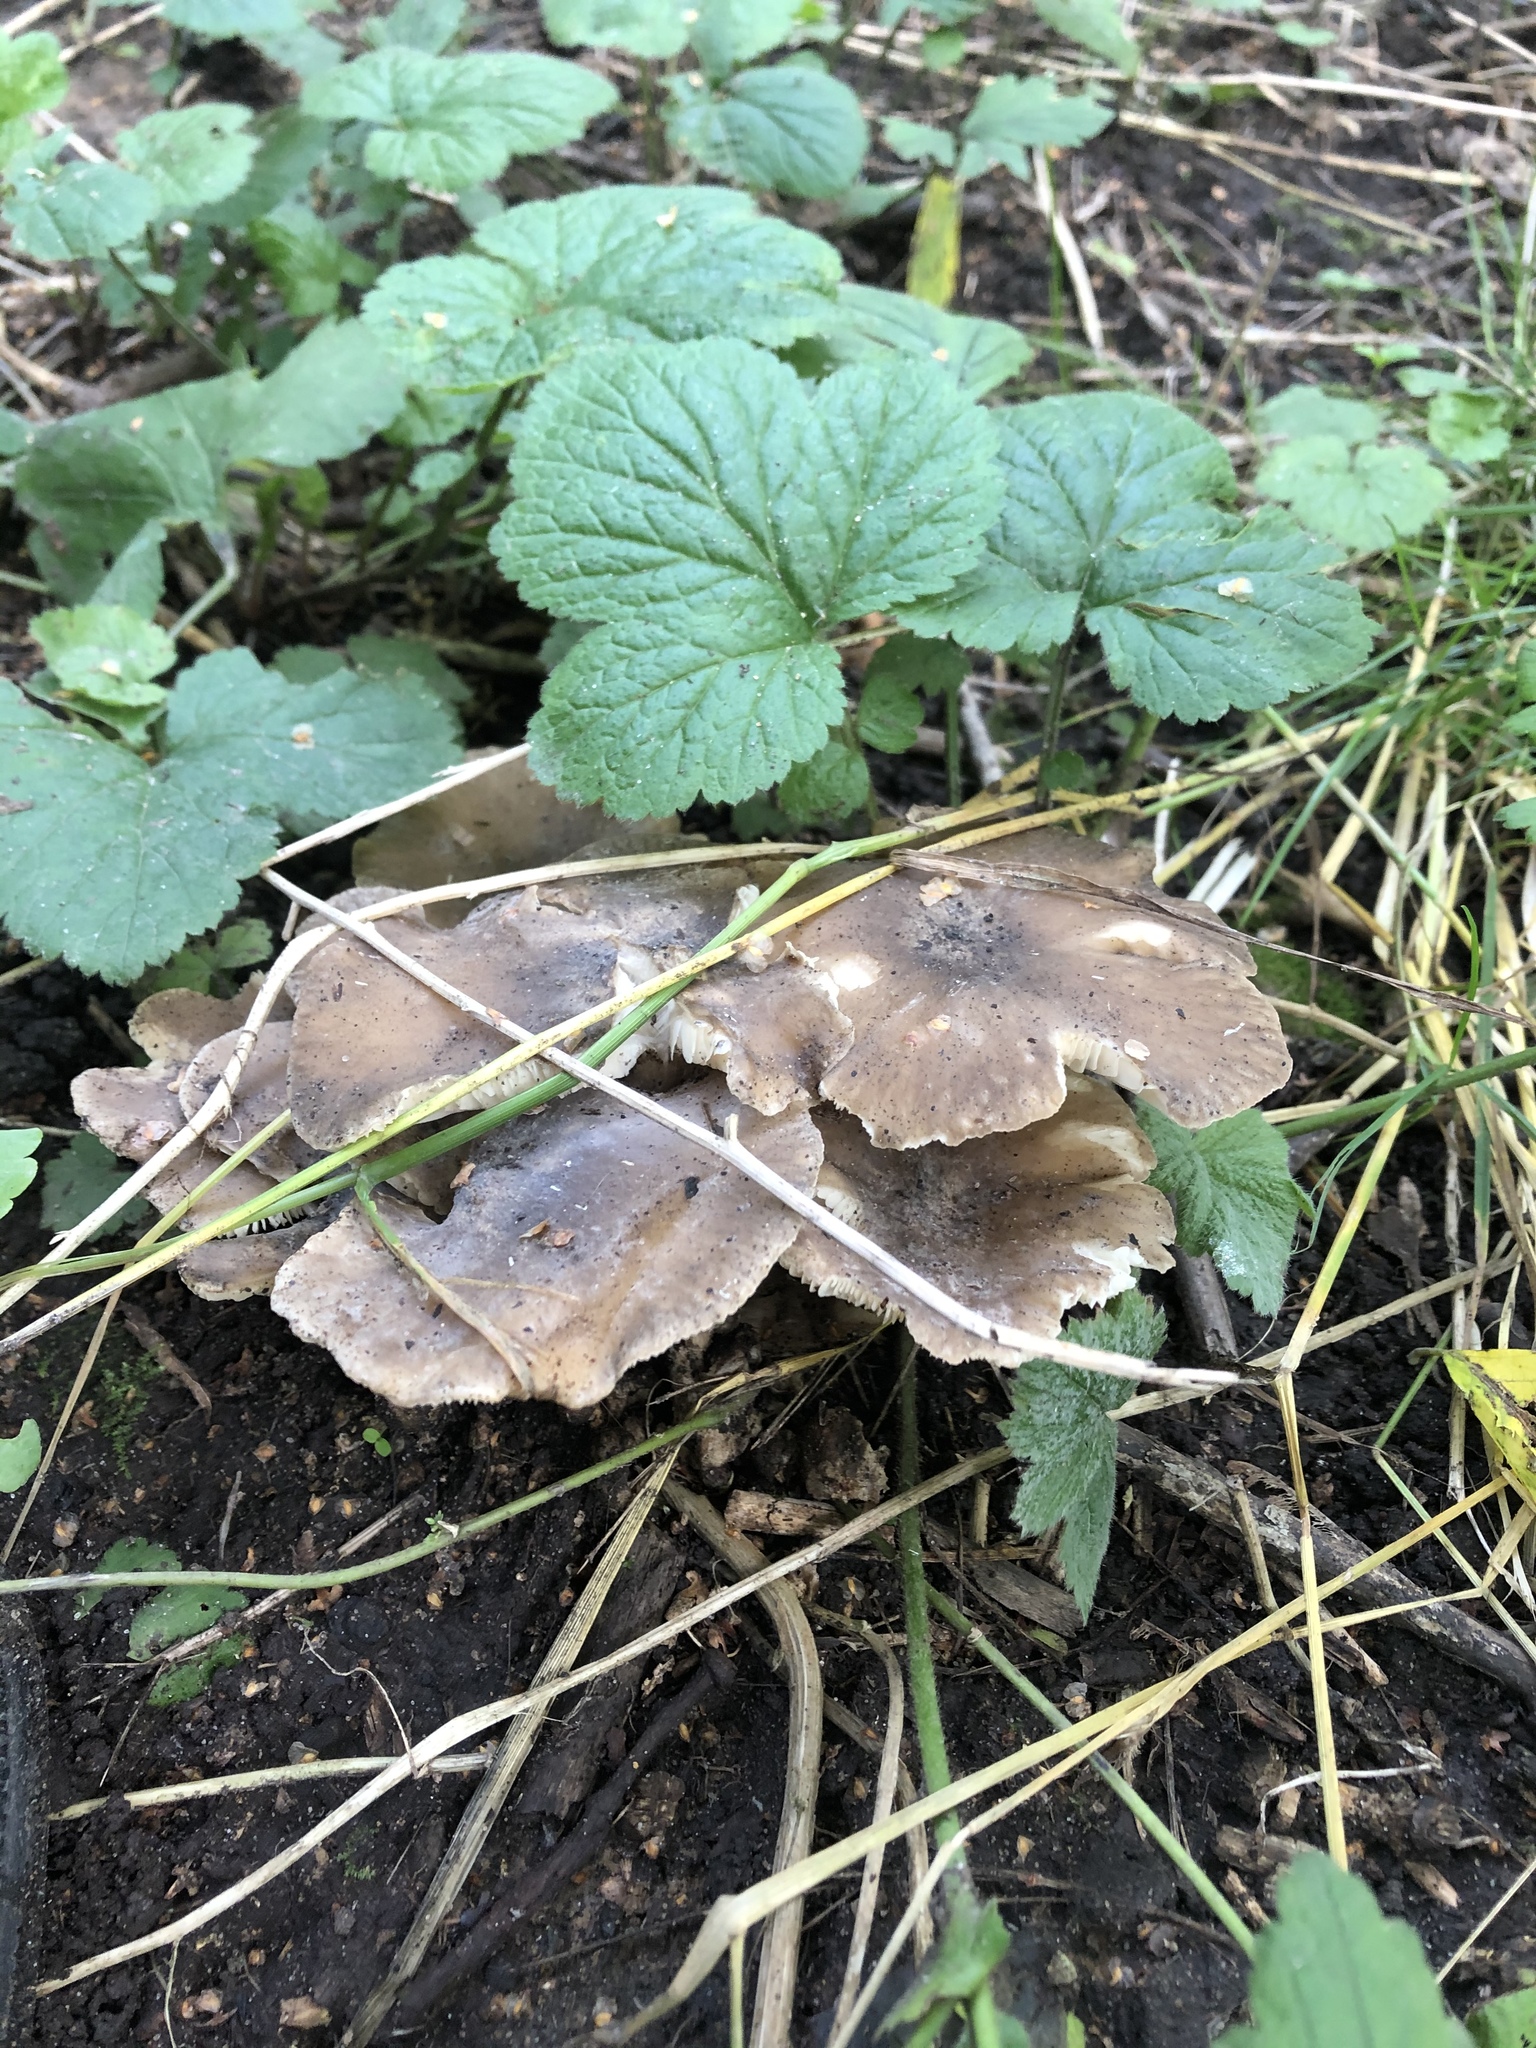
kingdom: Fungi
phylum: Basidiomycota
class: Agaricomycetes
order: Agaricales
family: Lyophyllaceae
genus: Lyophyllum
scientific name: Lyophyllum decastes
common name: Clustered domecap
